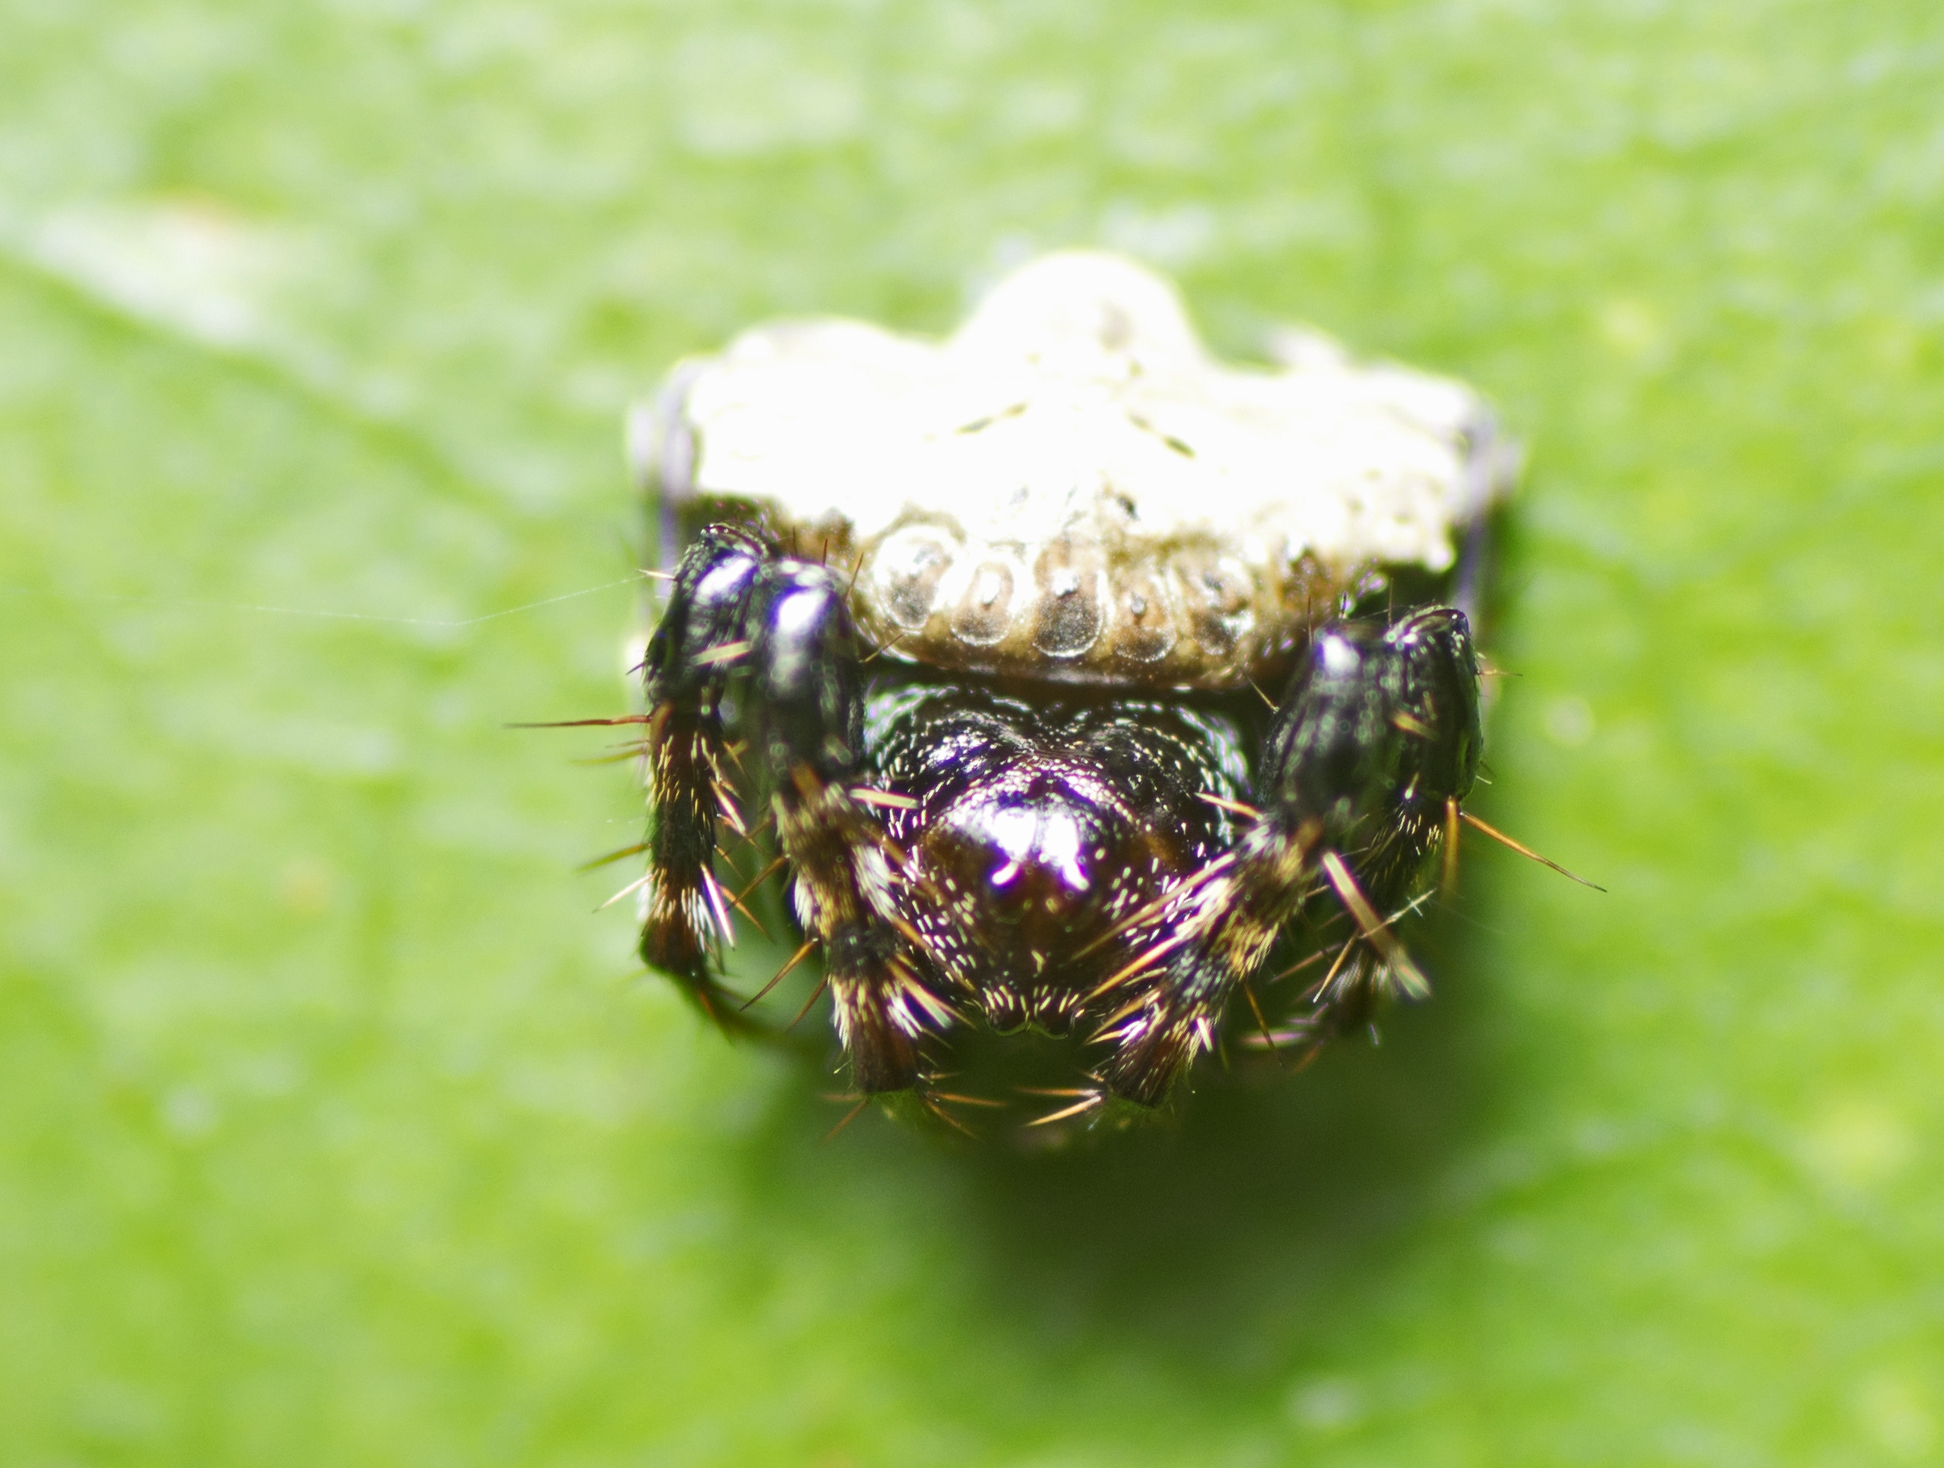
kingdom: Animalia
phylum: Arthropoda
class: Arachnida
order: Araneae
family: Arkyidae
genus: Arkys
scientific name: Arkys speechleyi
